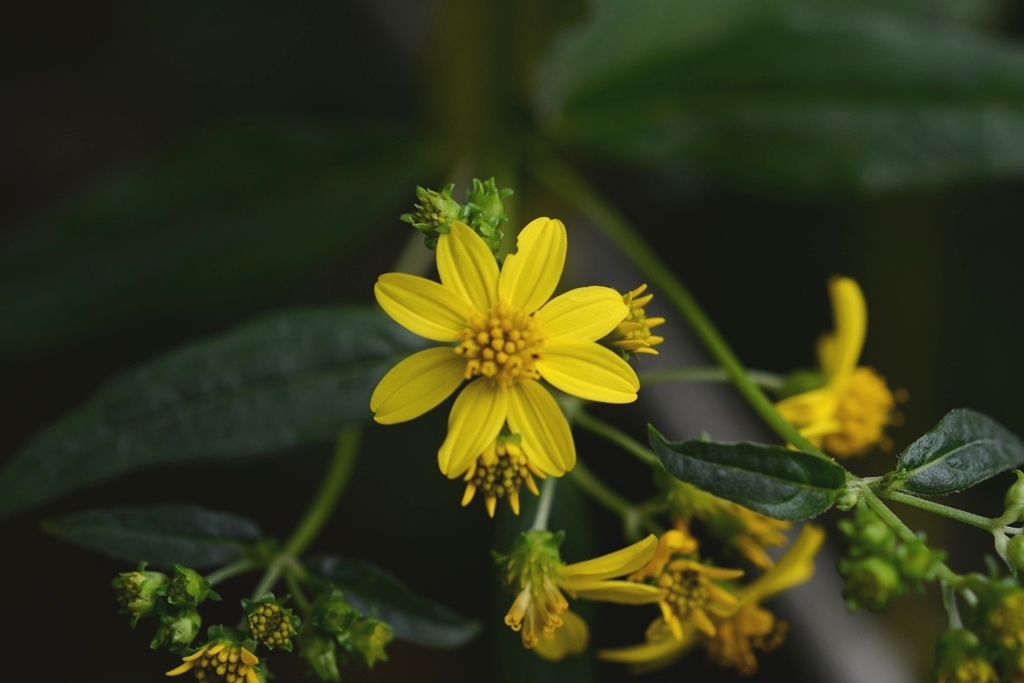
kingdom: Plantae
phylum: Tracheophyta
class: Magnoliopsida
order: Asterales
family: Asteraceae
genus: Perymenium
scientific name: Perymenium gymnolomoides
